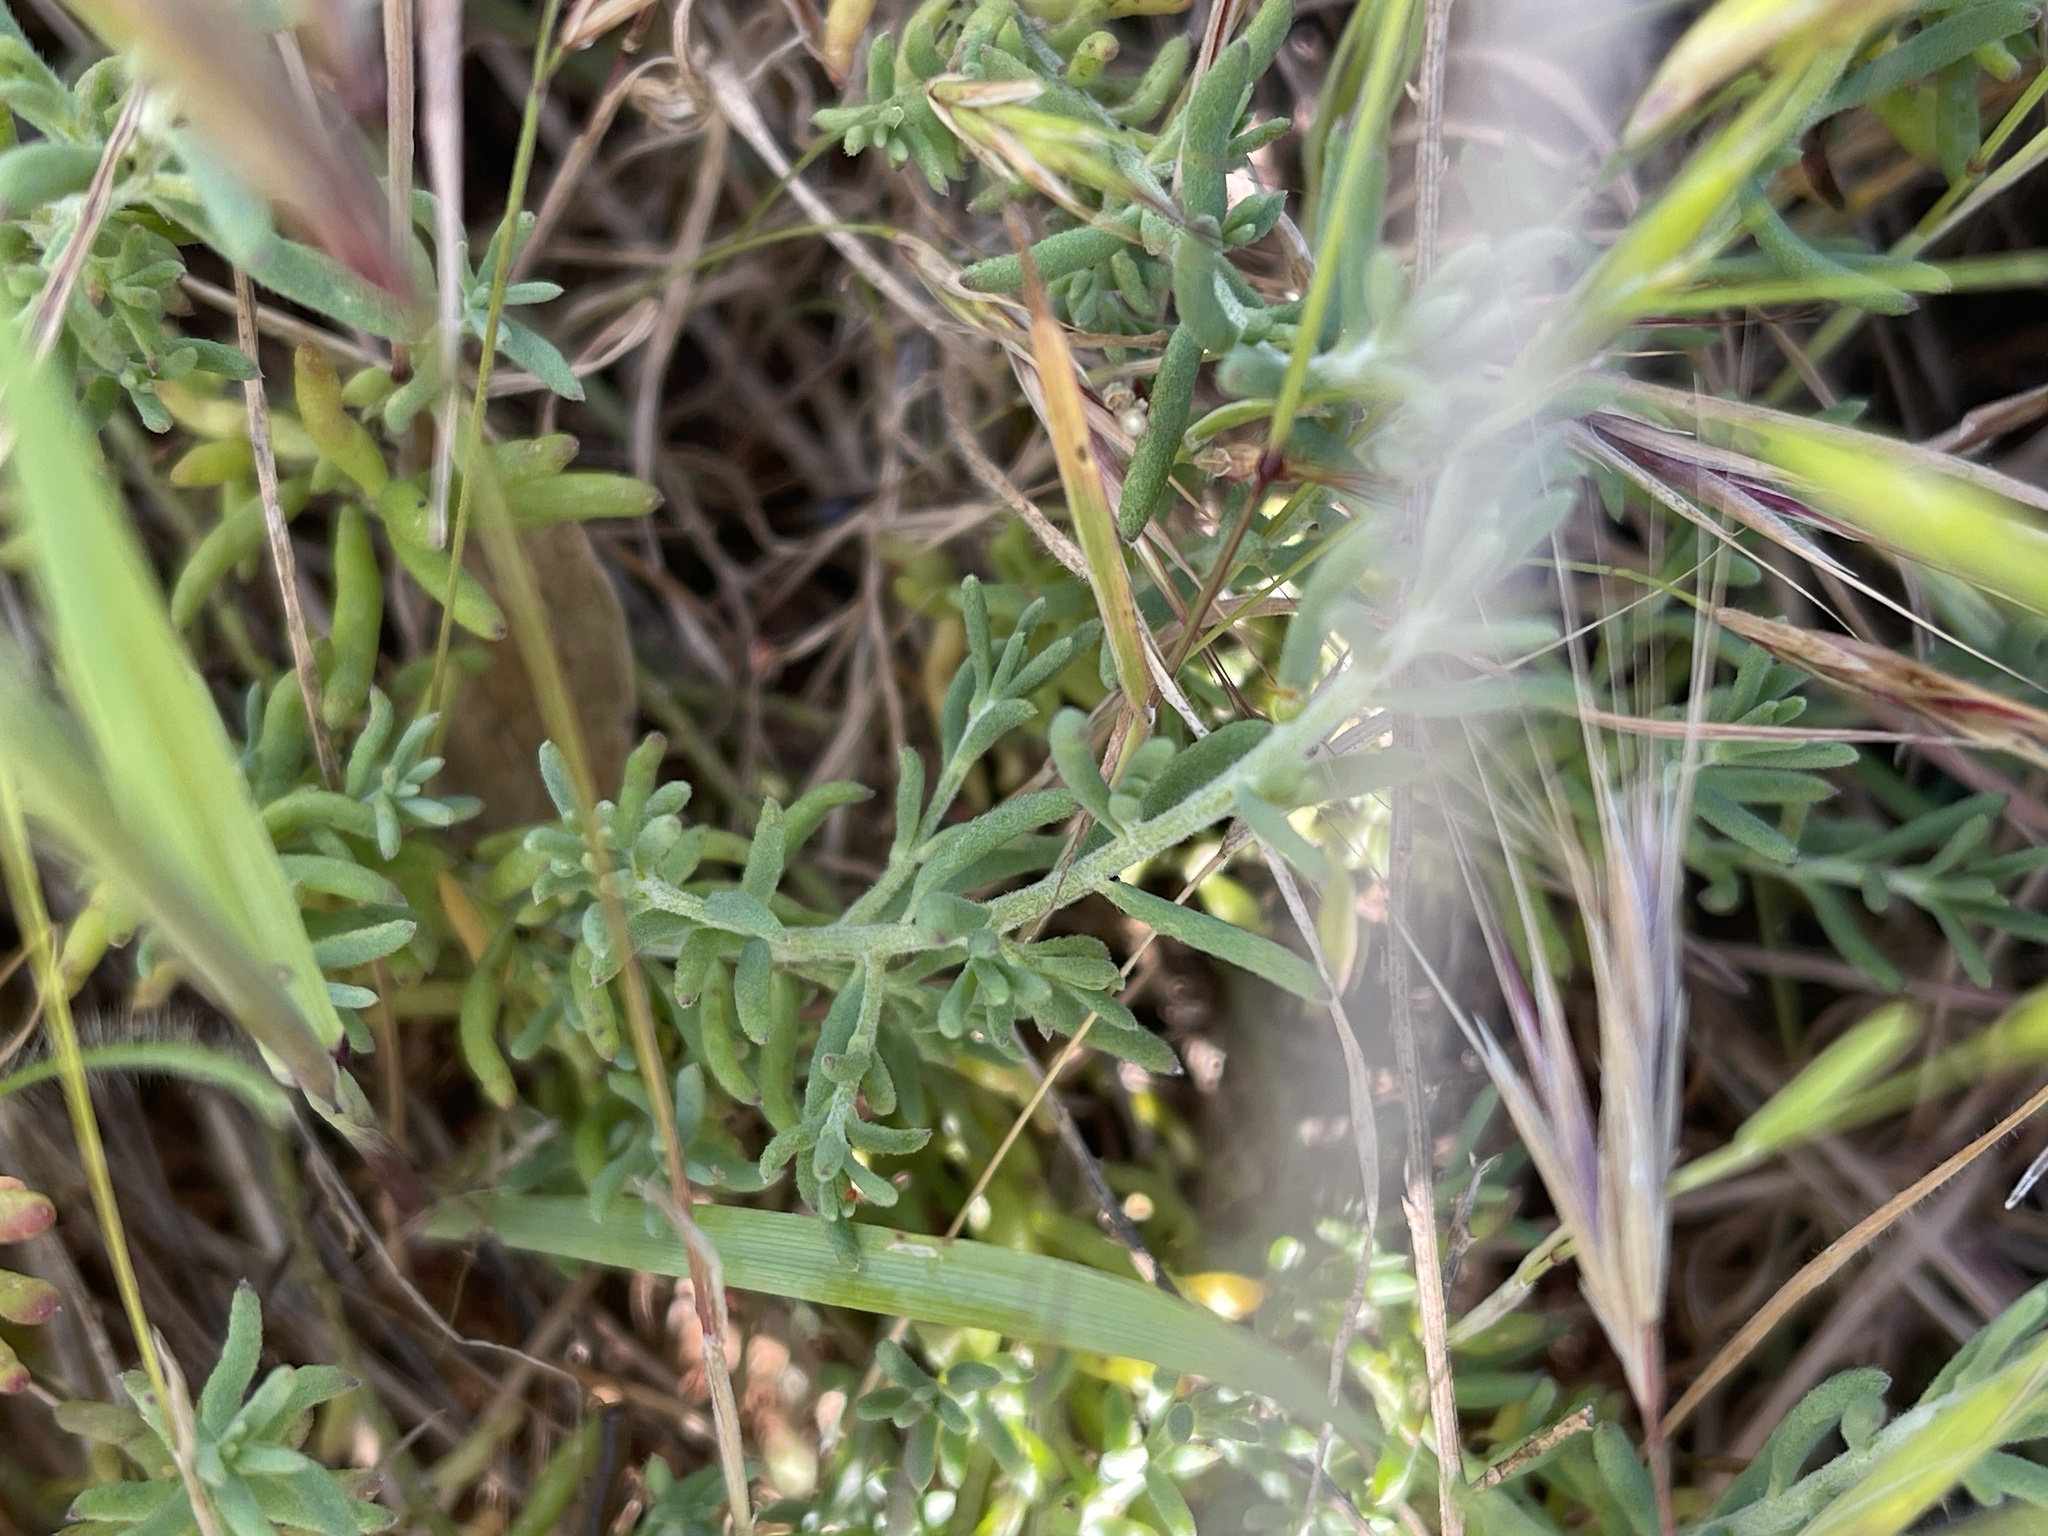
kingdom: Plantae
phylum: Tracheophyta
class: Magnoliopsida
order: Caryophyllales
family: Amaranthaceae
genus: Enchylaena
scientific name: Enchylaena tomentosa
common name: Ruby saltbush
